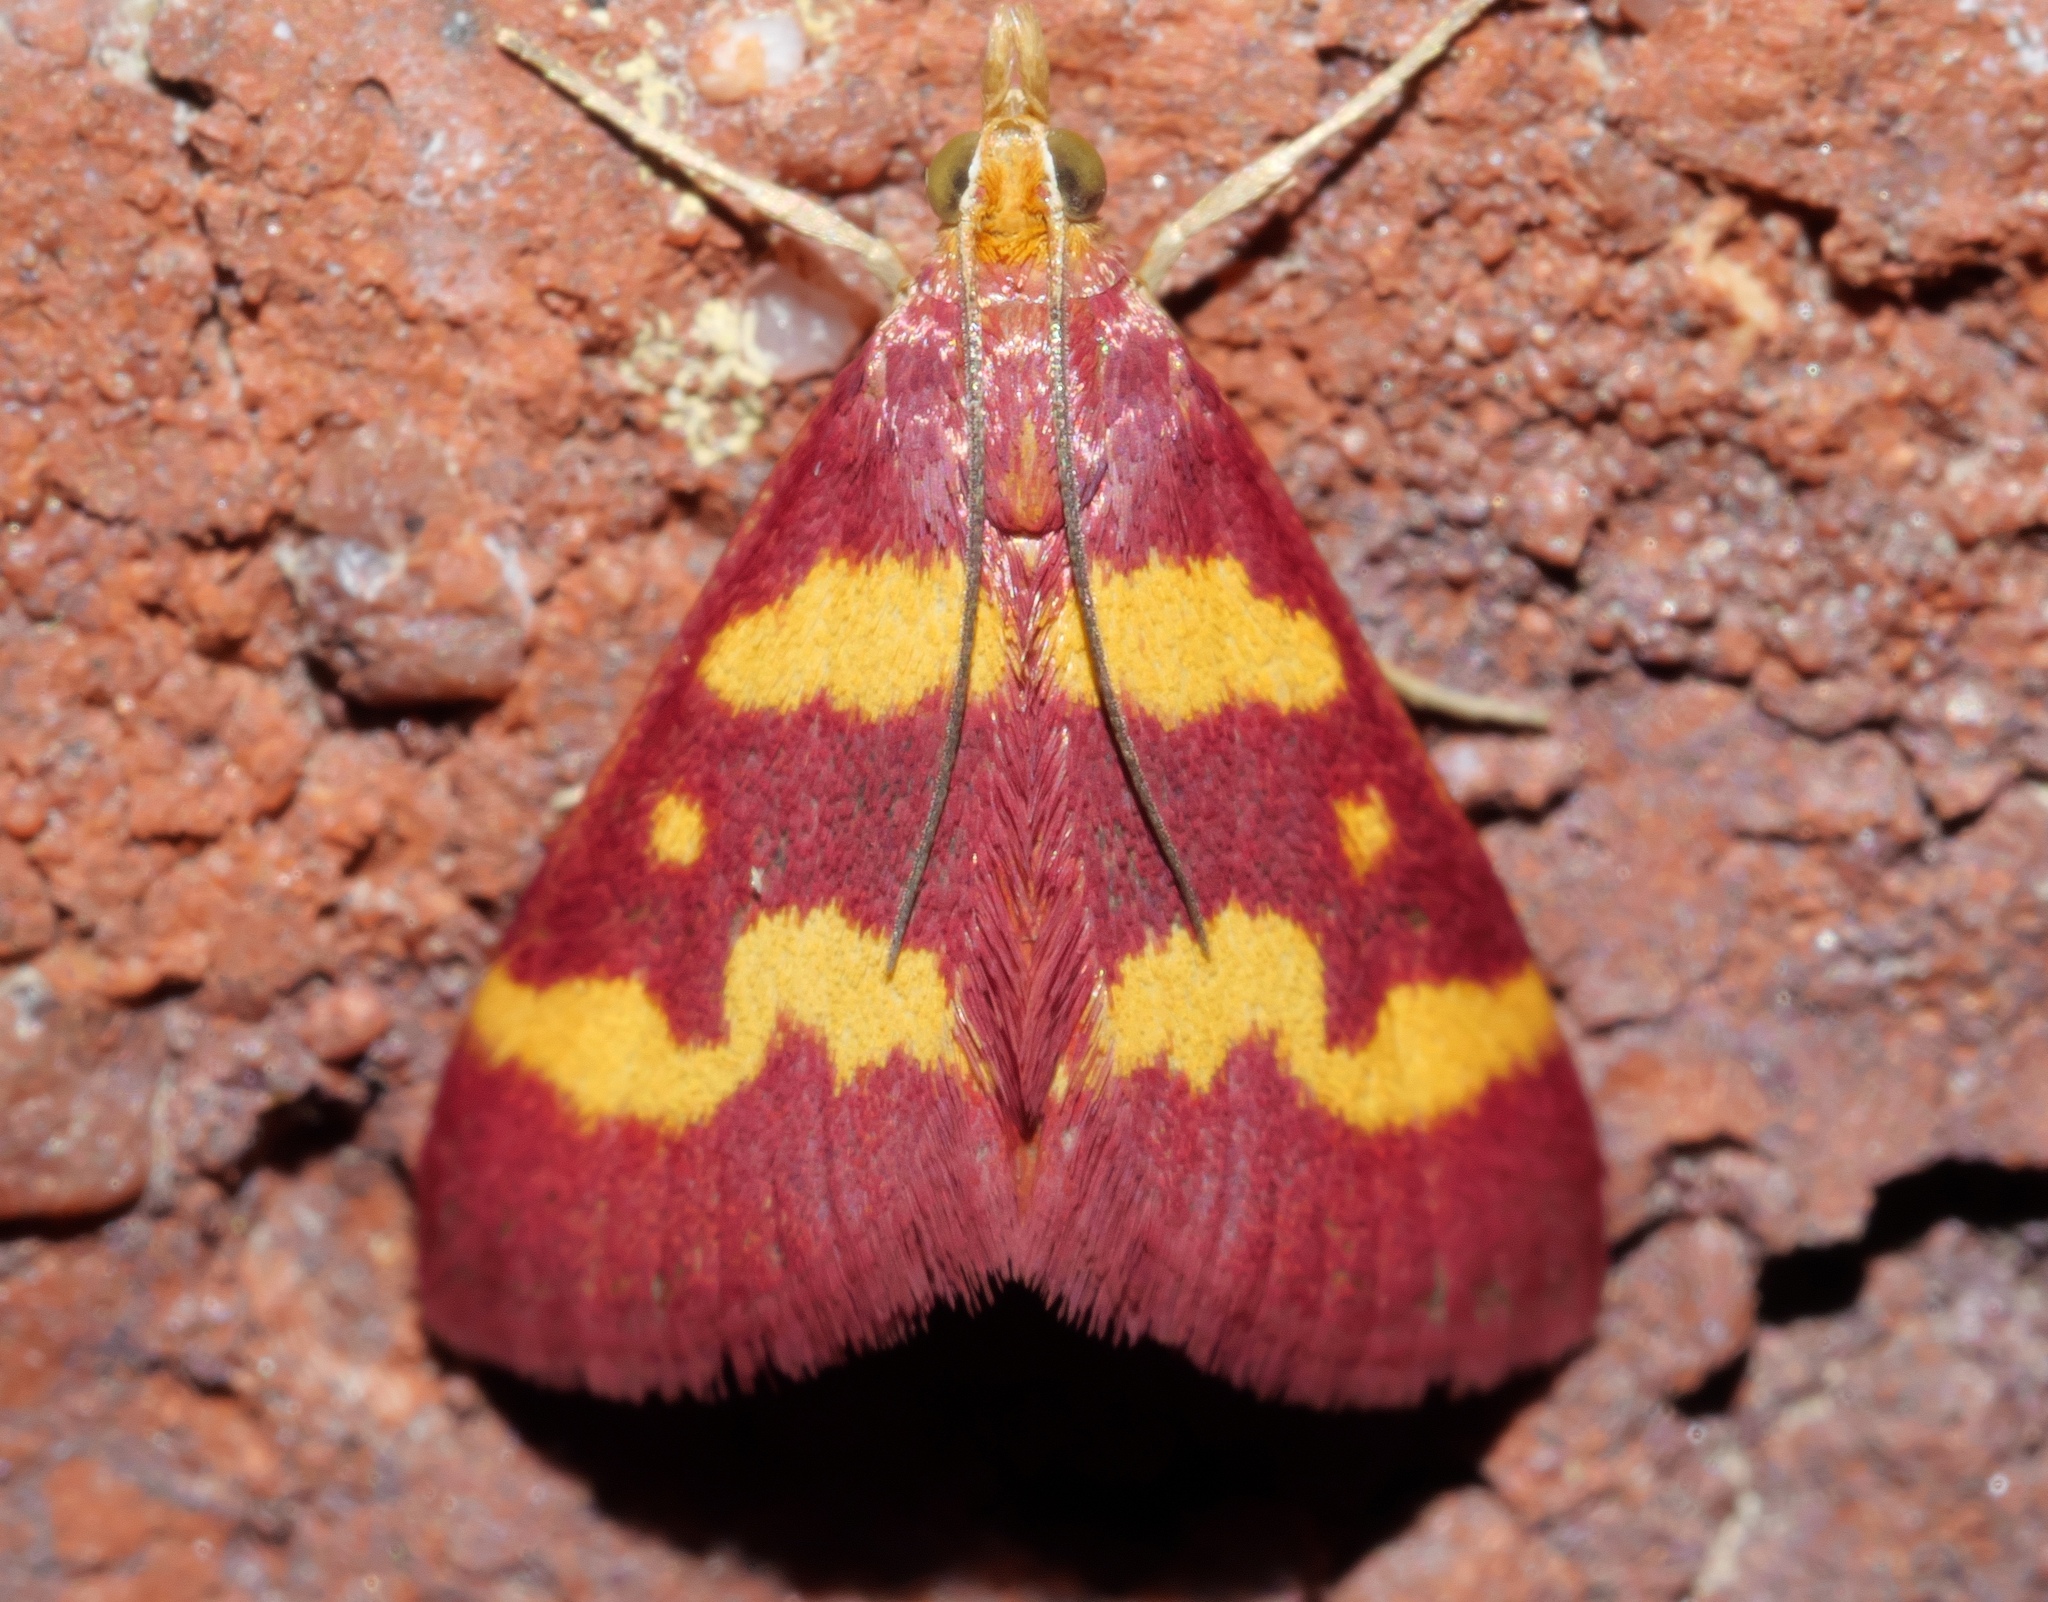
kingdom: Animalia
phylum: Arthropoda
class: Insecta
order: Lepidoptera
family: Crambidae
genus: Pyrausta
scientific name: Pyrausta tyralis
